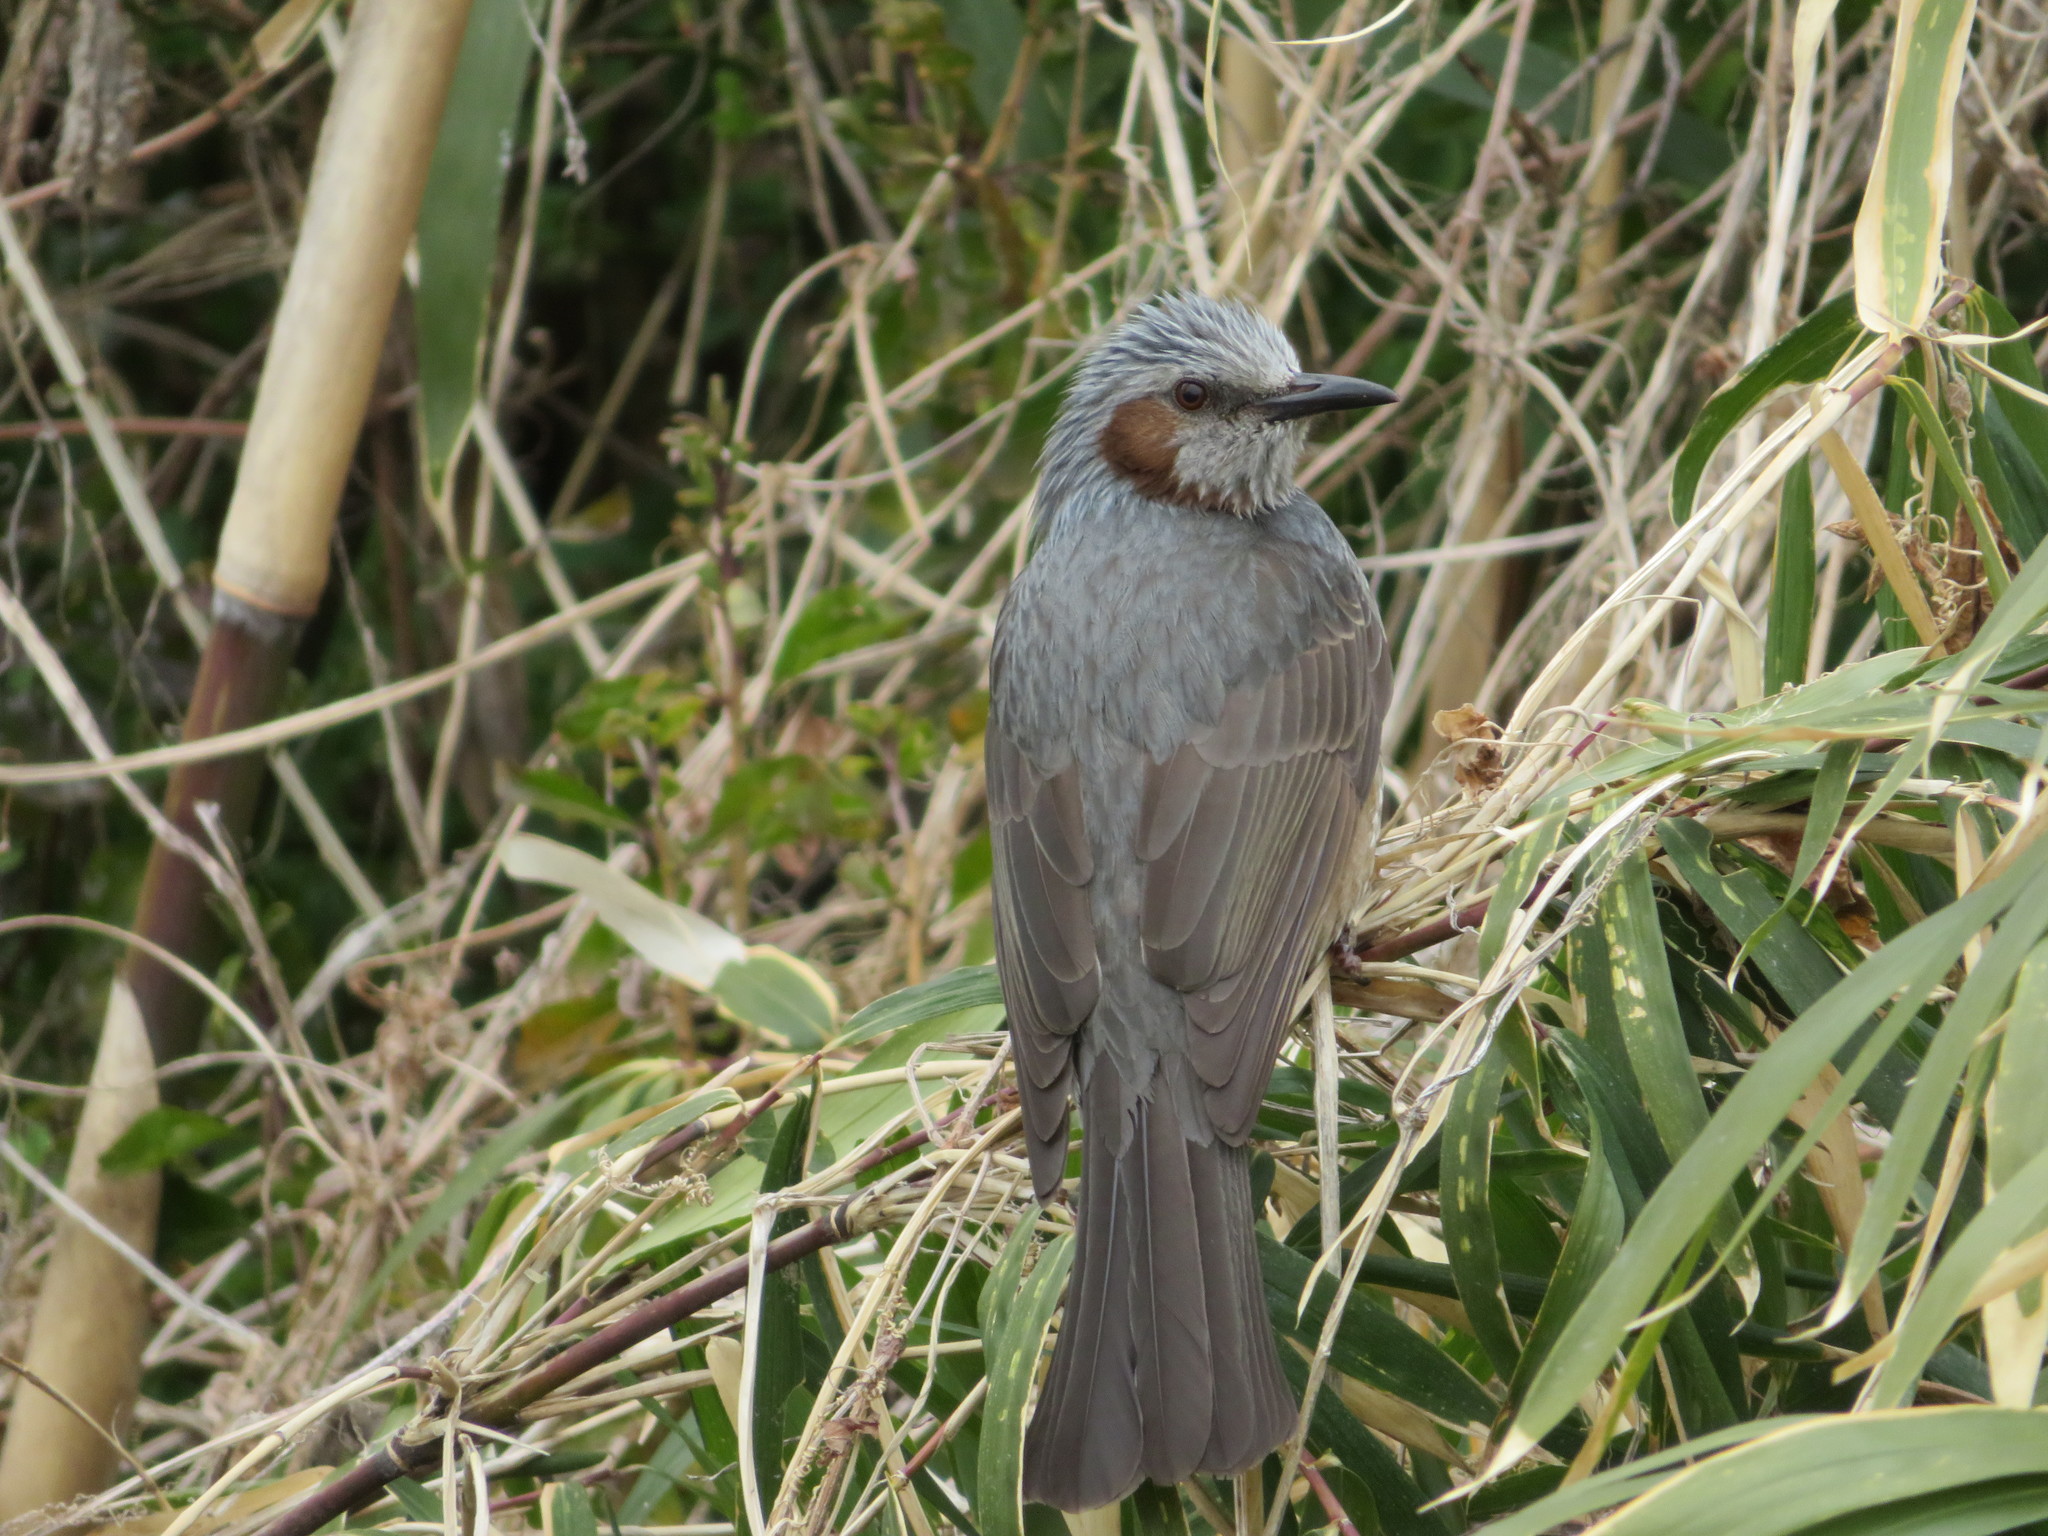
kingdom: Animalia
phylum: Chordata
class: Aves
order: Passeriformes
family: Pycnonotidae
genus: Hypsipetes
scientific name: Hypsipetes amaurotis
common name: Brown-eared bulbul
